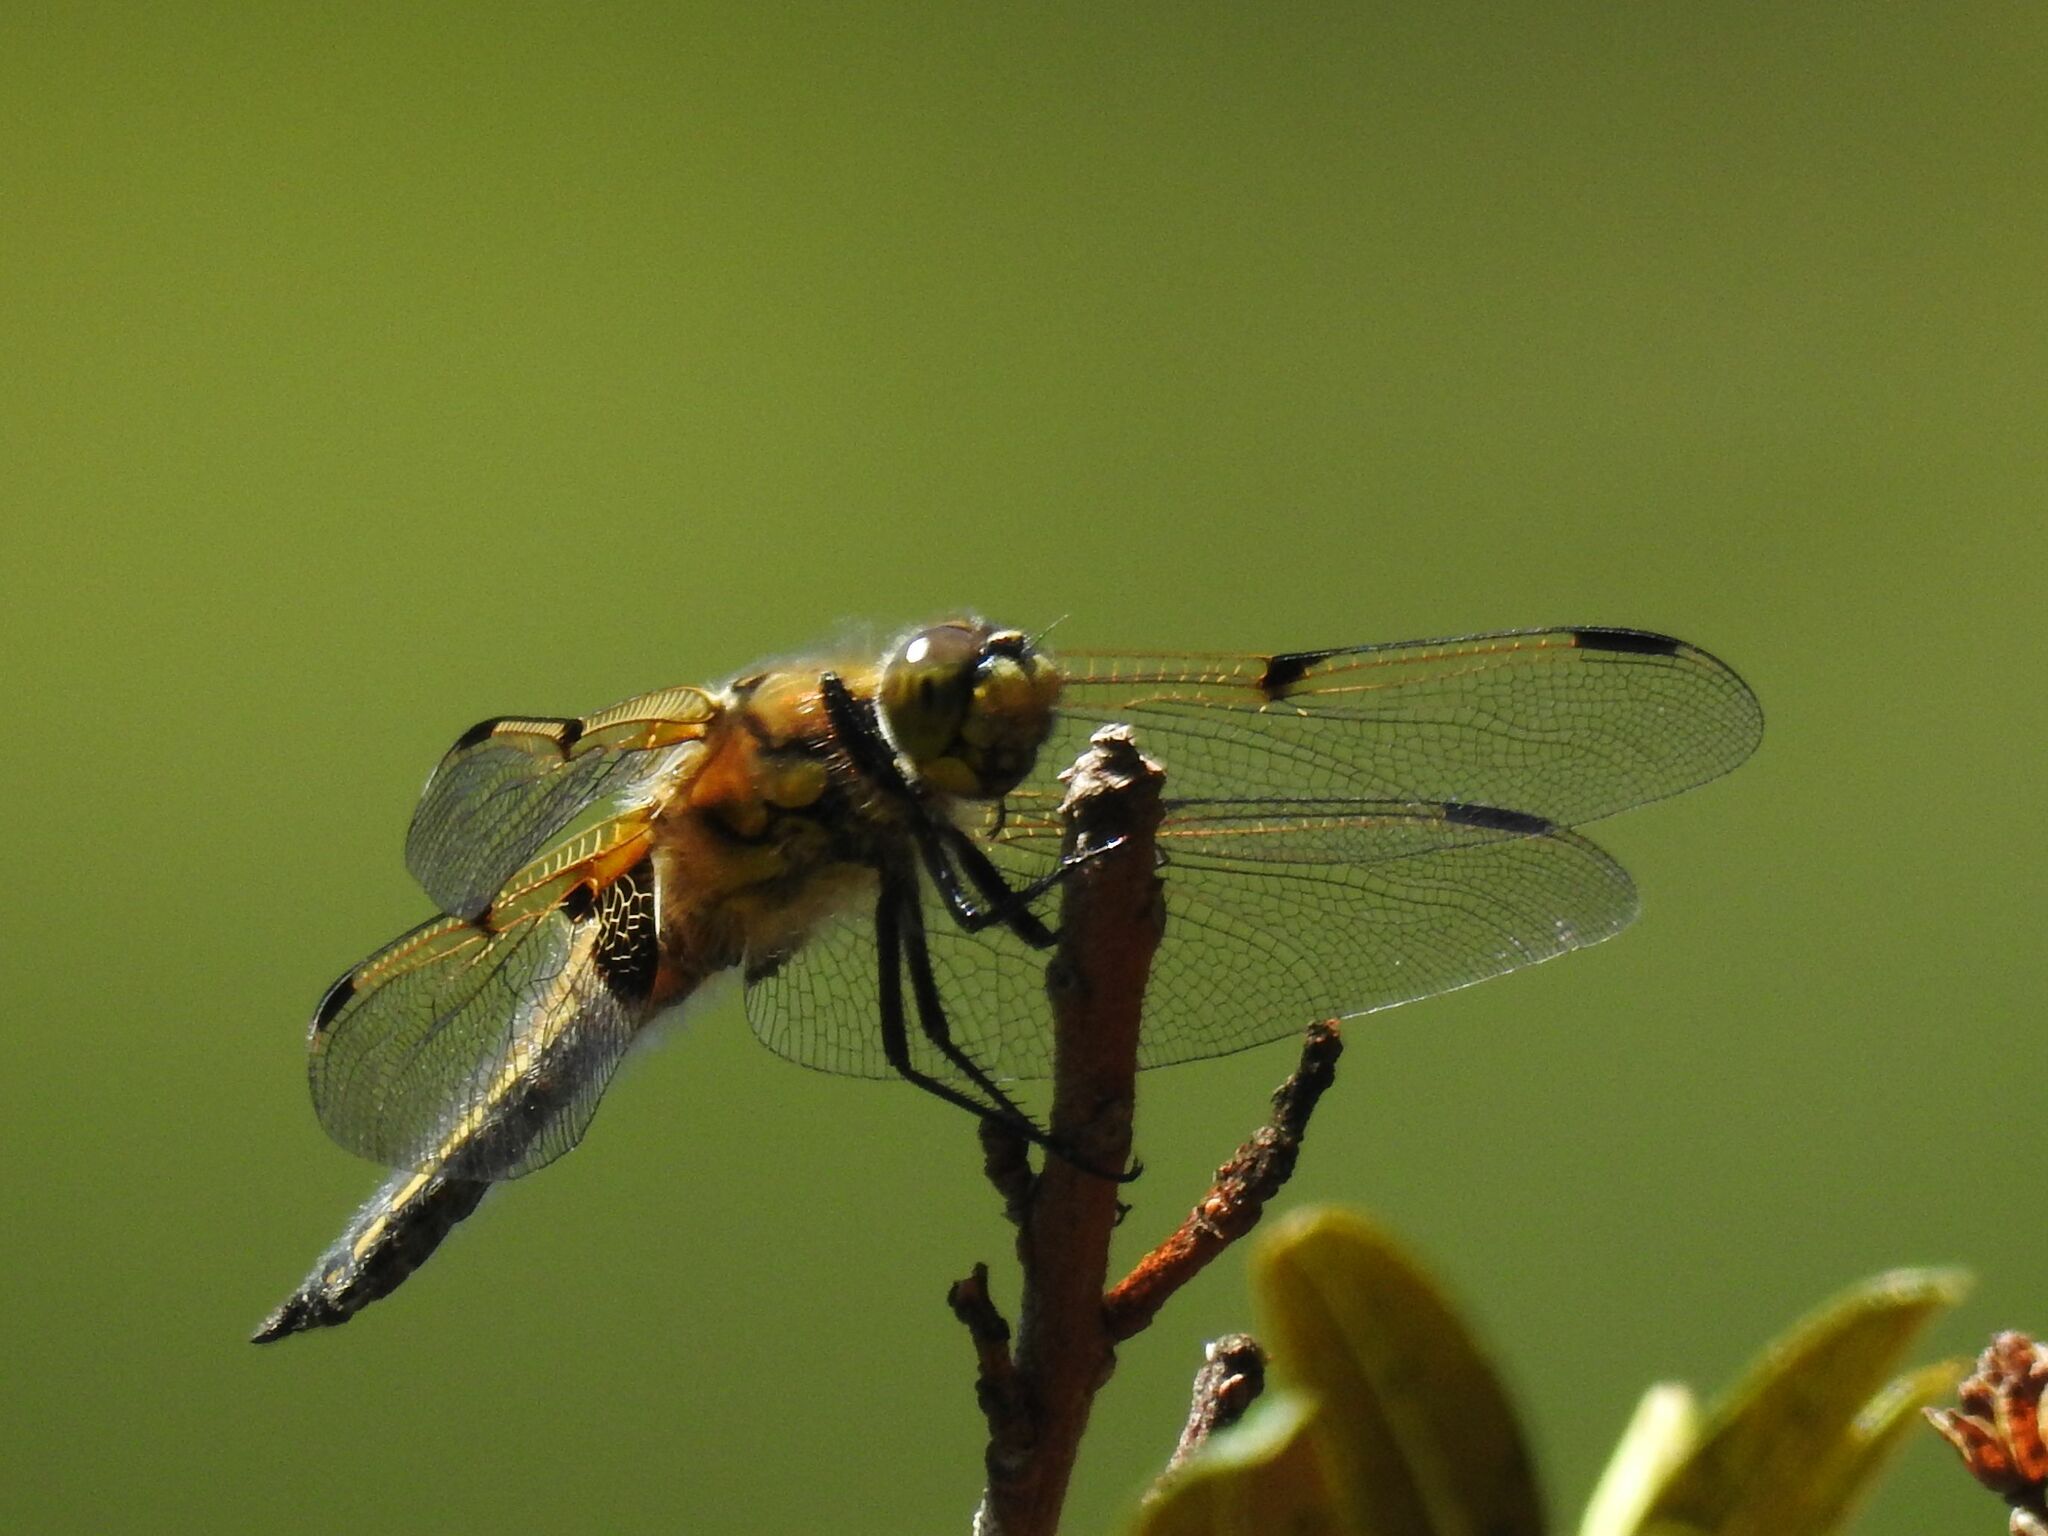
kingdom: Animalia
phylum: Arthropoda
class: Insecta
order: Odonata
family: Libellulidae
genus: Libellula
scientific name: Libellula quadrimaculata
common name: Four-spotted chaser
